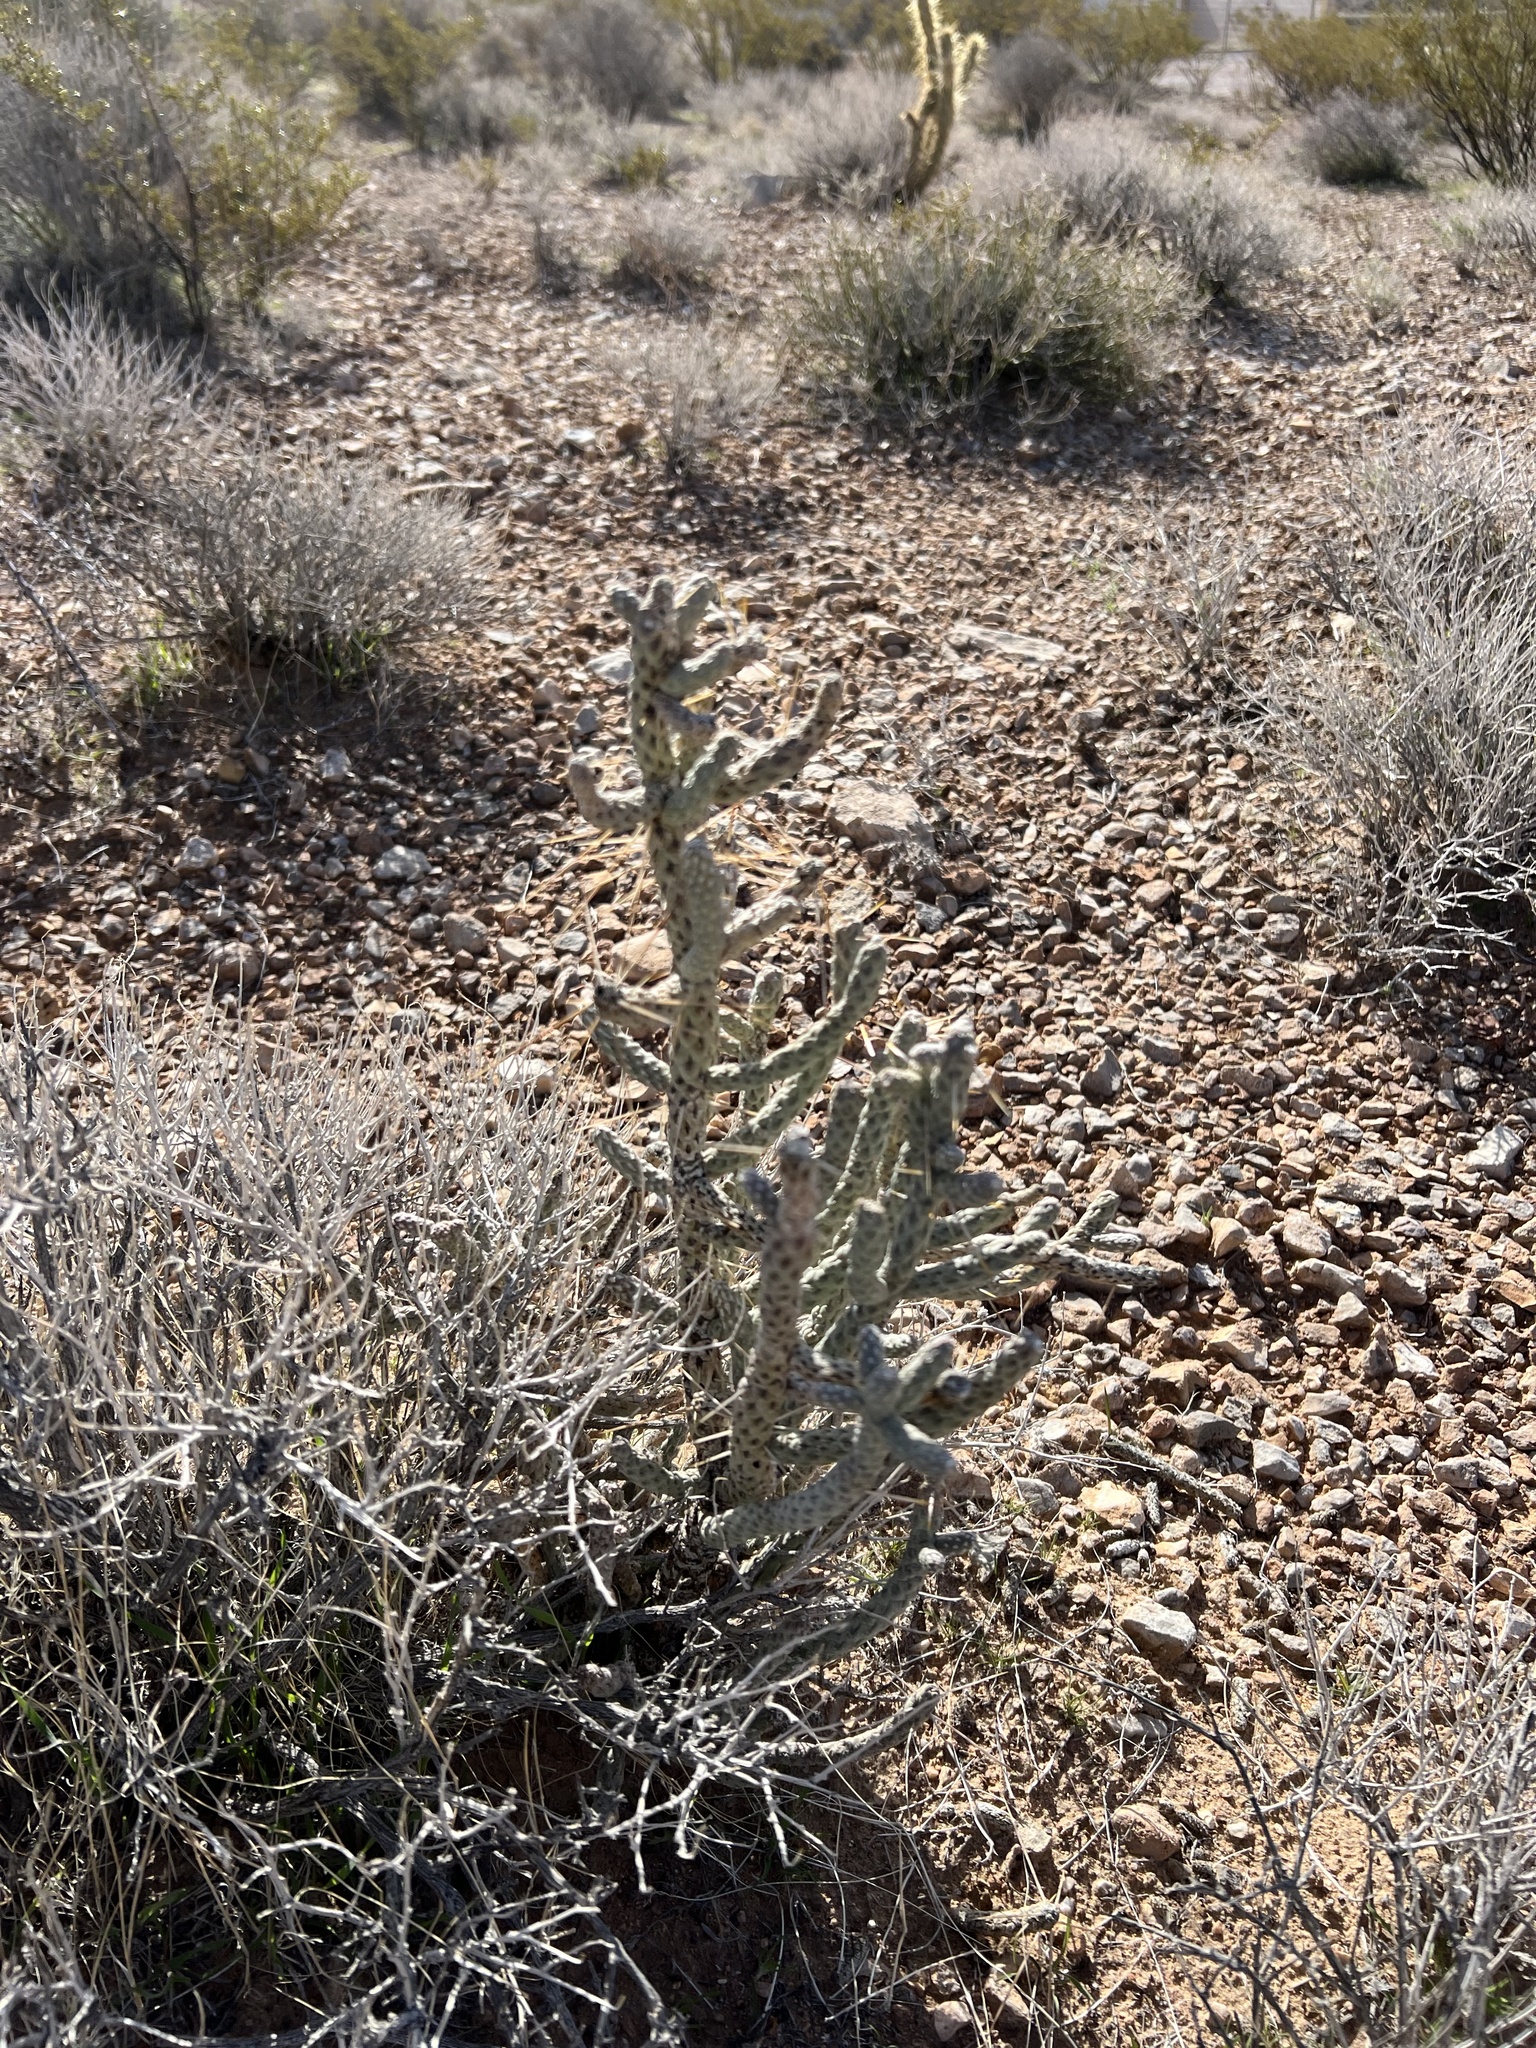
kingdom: Plantae
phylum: Tracheophyta
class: Magnoliopsida
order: Caryophyllales
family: Cactaceae
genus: Cylindropuntia
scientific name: Cylindropuntia ramosissima
